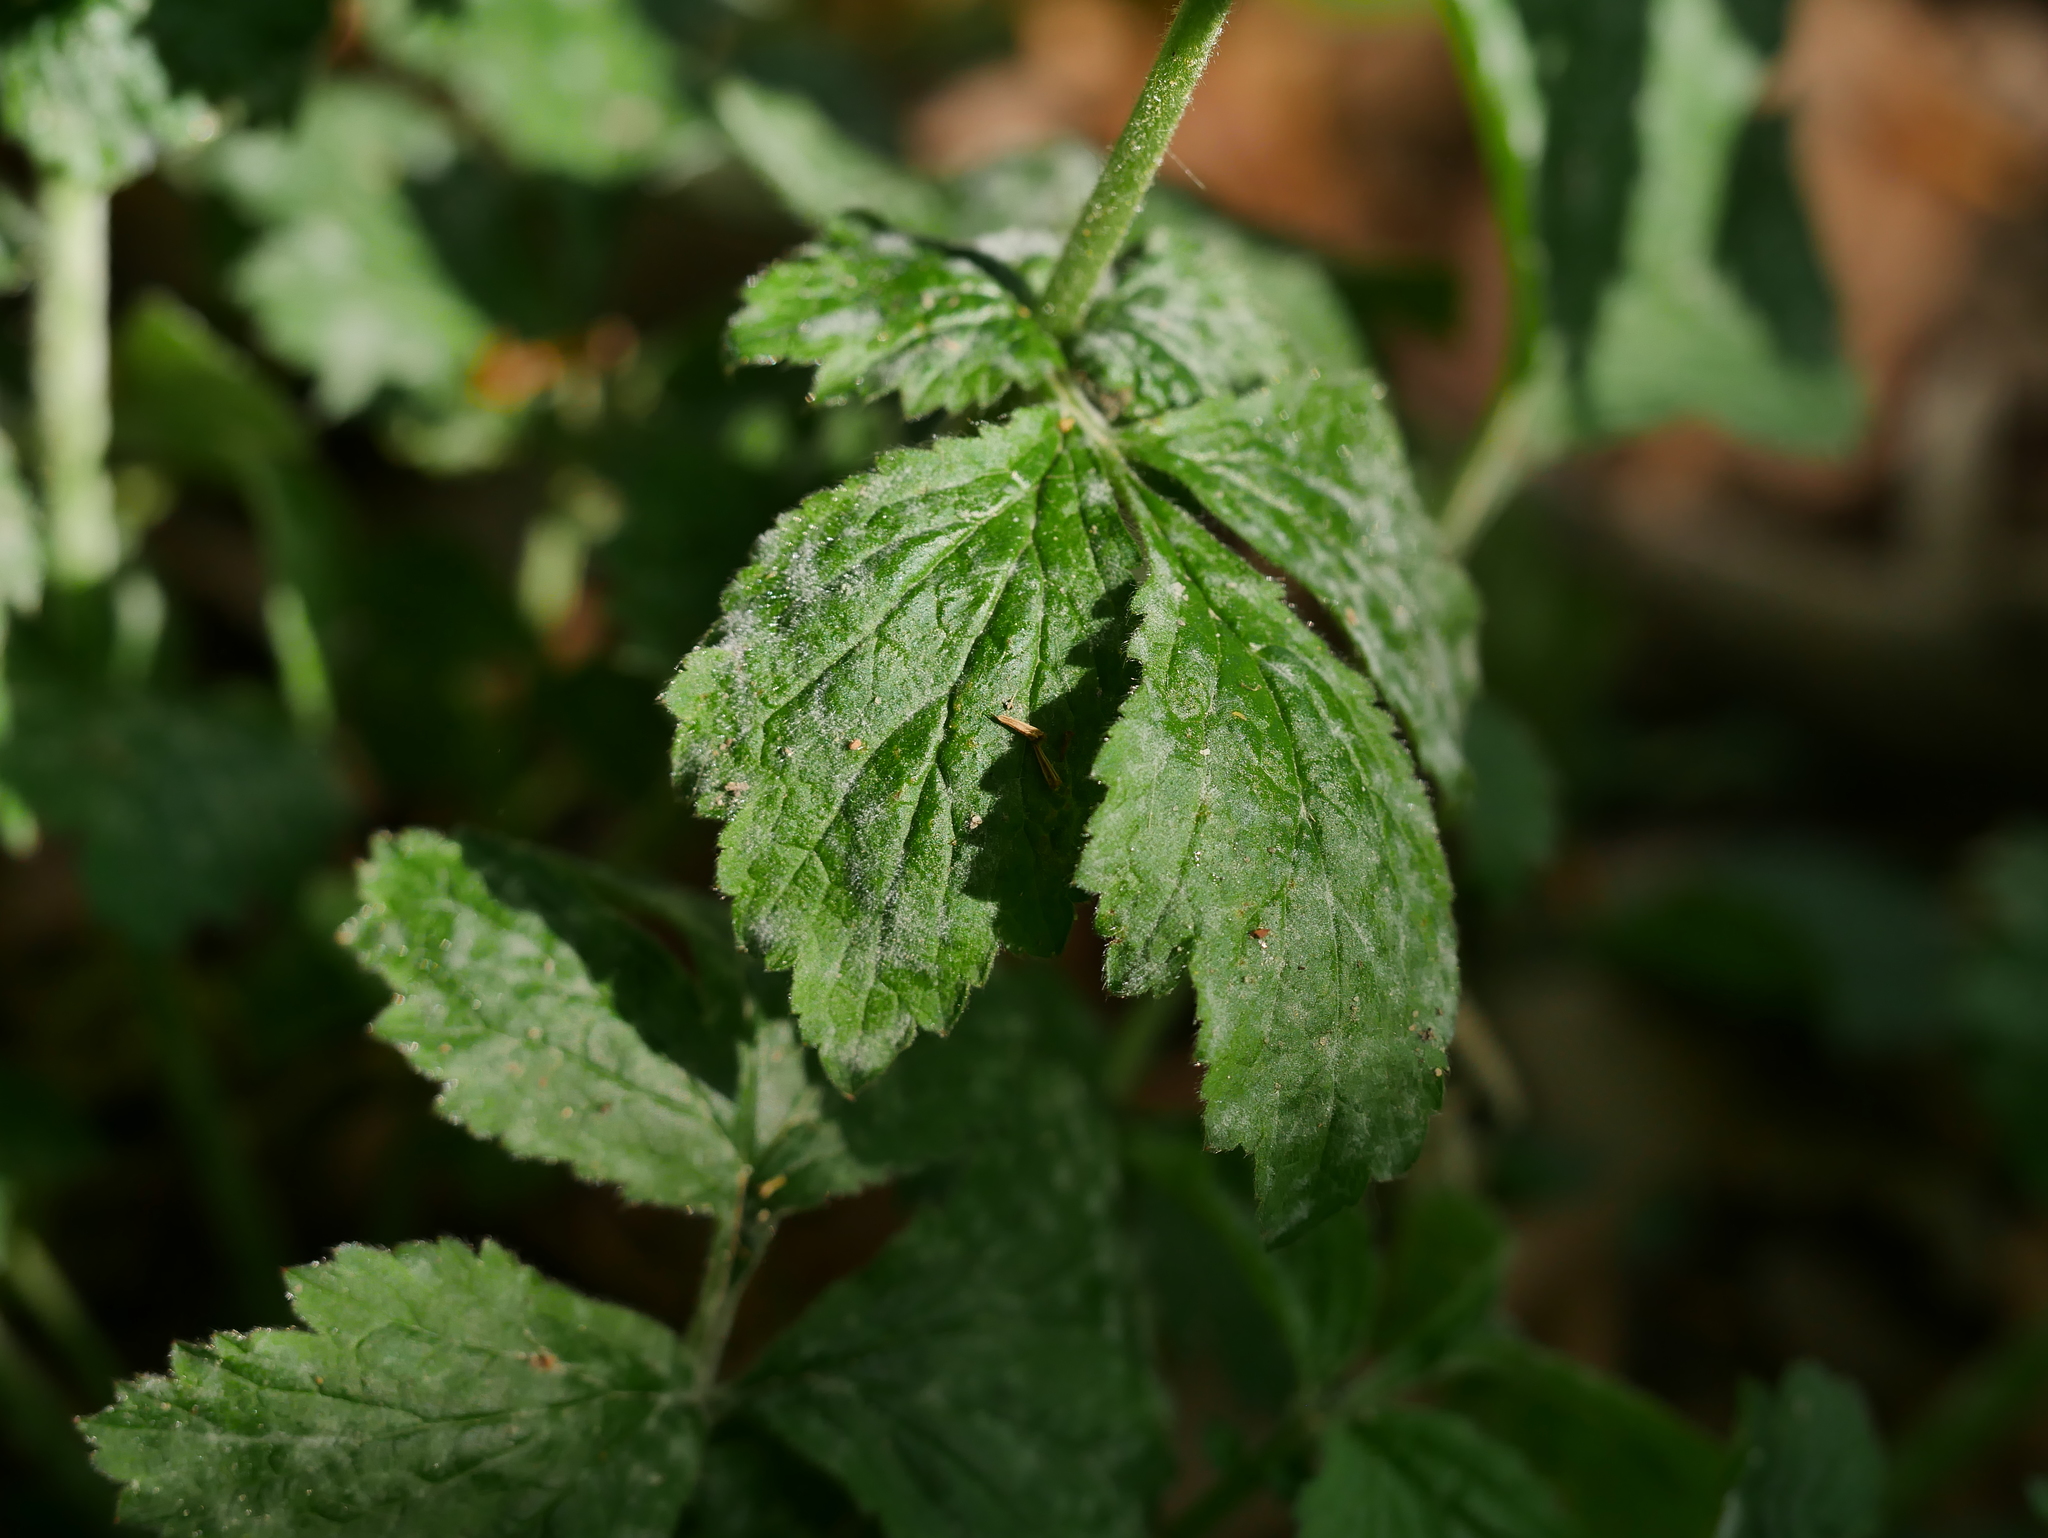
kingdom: Fungi
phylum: Ascomycota
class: Leotiomycetes
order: Helotiales
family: Erysiphaceae
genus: Podosphaera
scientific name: Podosphaera aphanis
